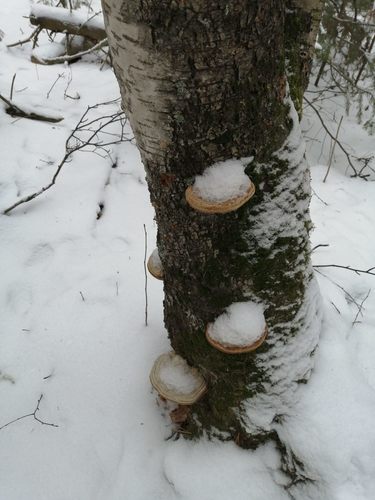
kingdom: Fungi
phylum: Basidiomycota
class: Agaricomycetes
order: Polyporales
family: Polyporaceae
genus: Fomes
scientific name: Fomes fomentarius
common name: Hoof fungus
